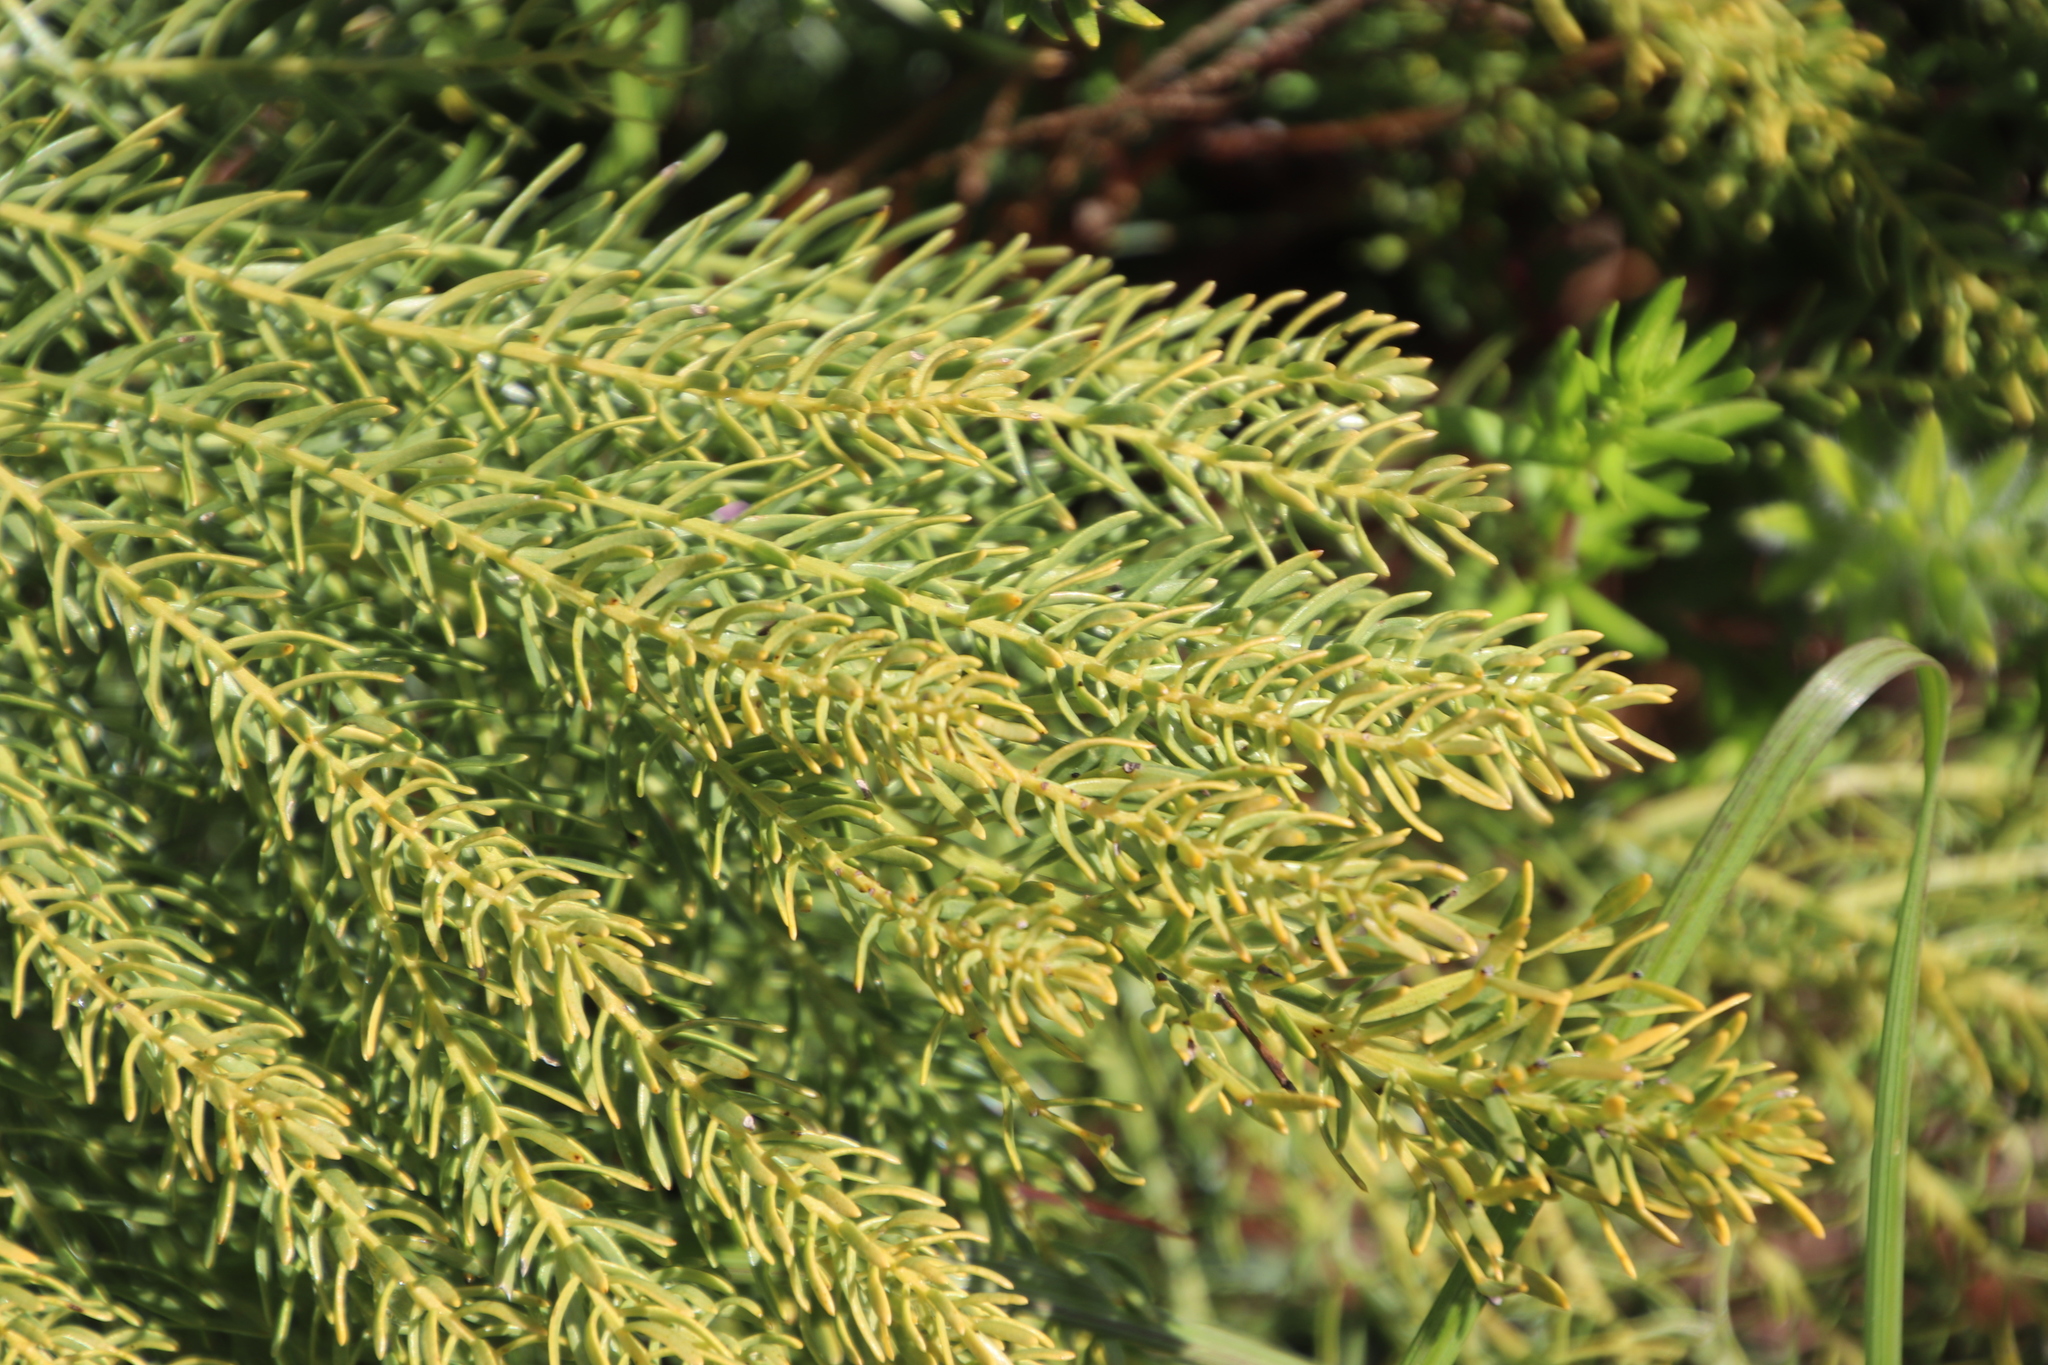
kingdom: Plantae
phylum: Tracheophyta
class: Magnoliopsida
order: Fabales
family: Fabaceae
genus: Rafnia
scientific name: Rafnia angulata
